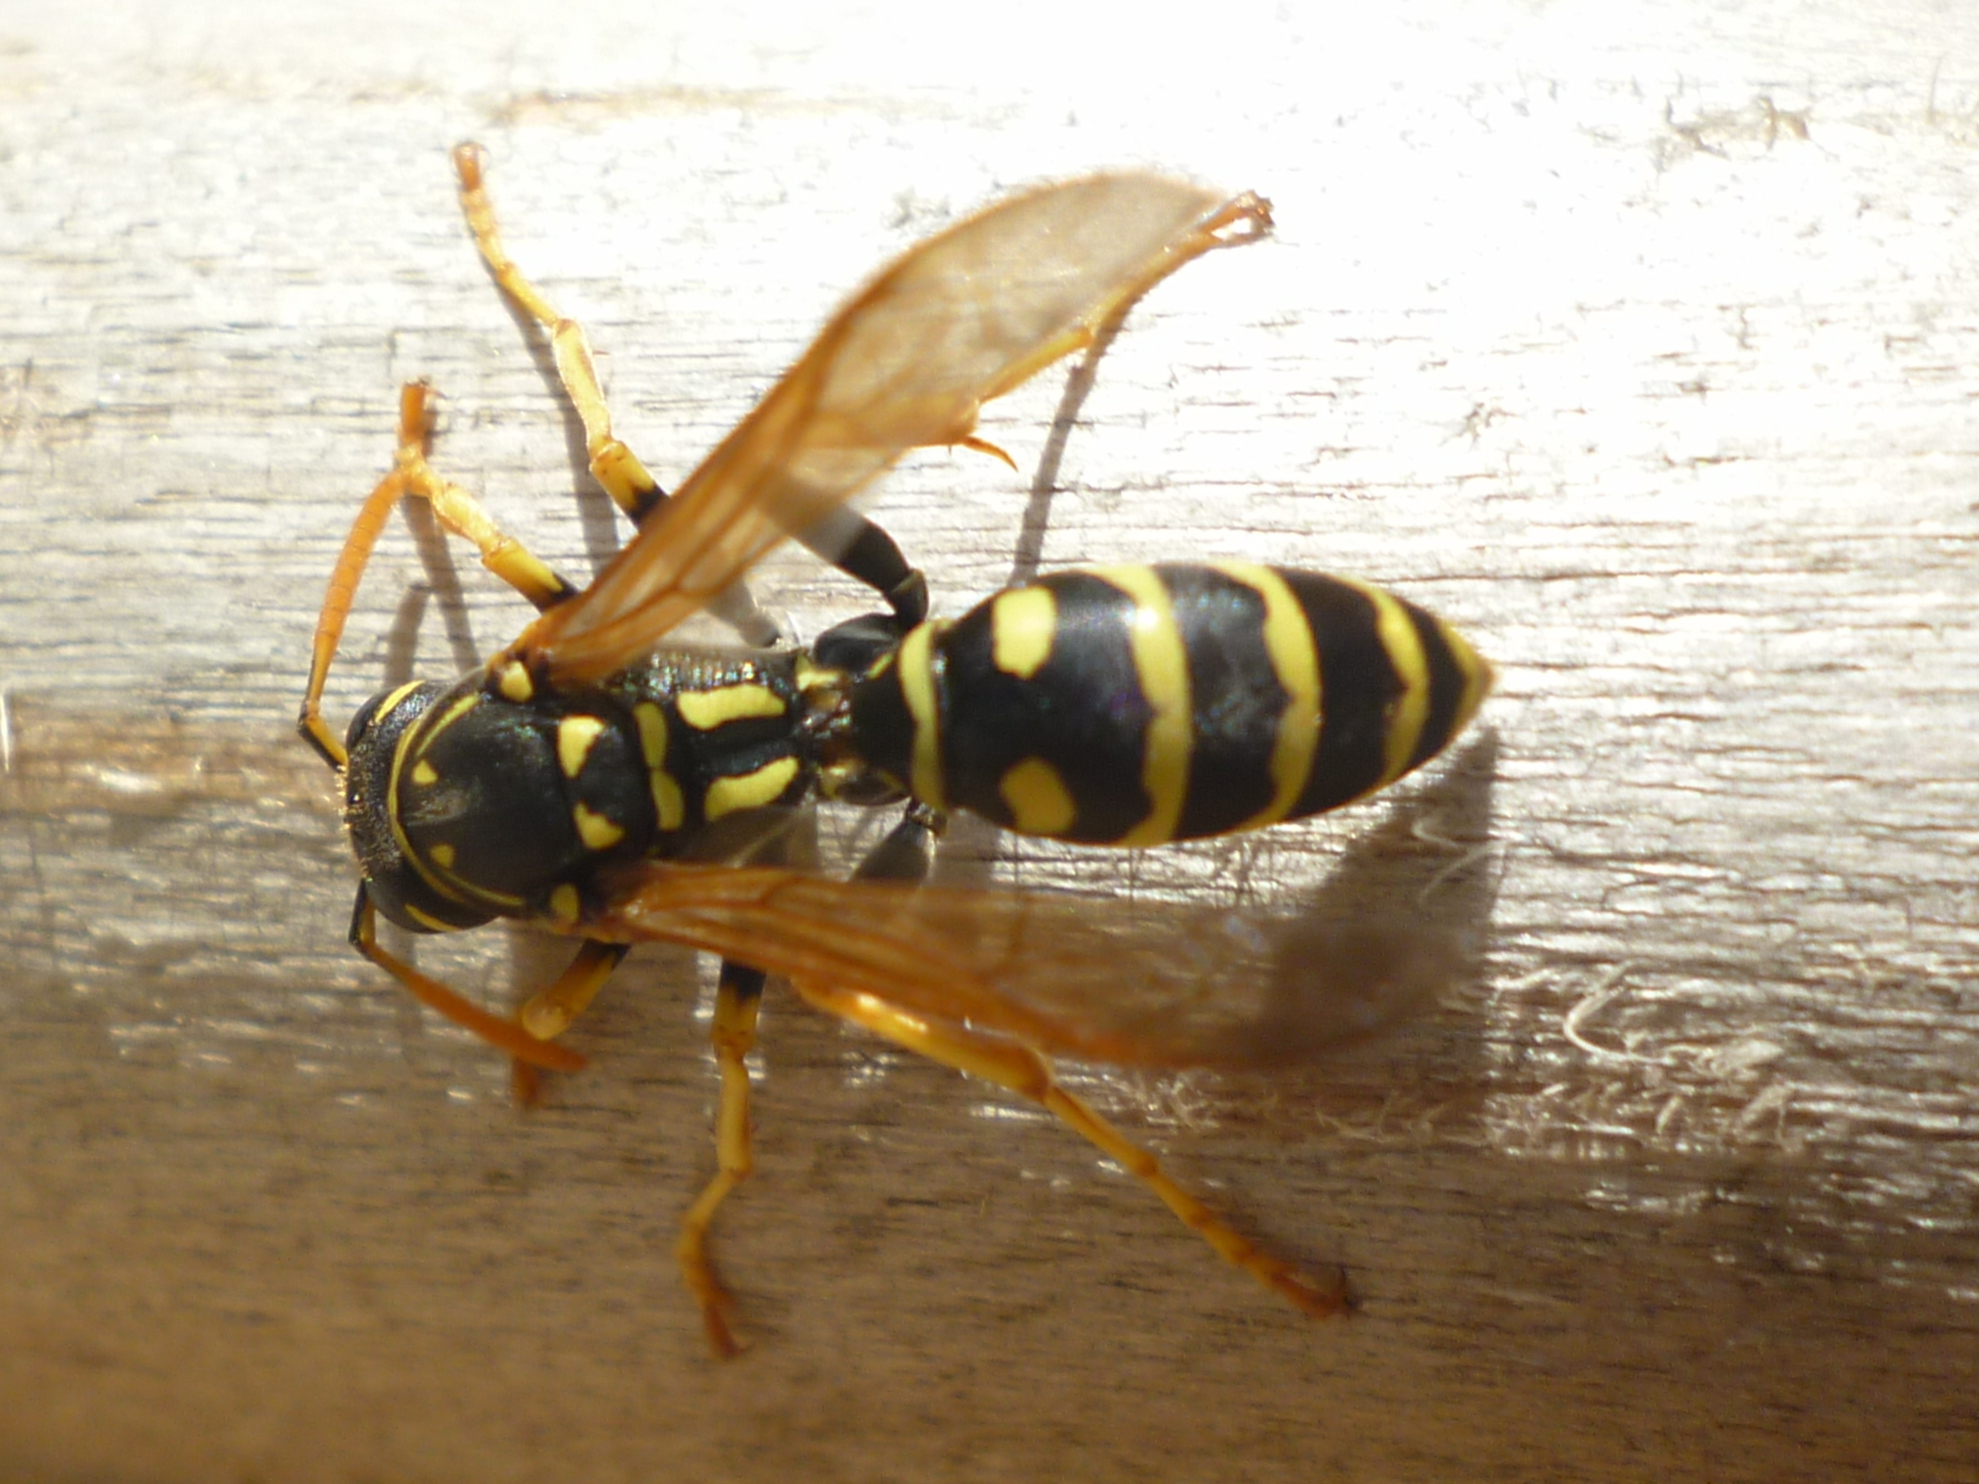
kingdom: Animalia
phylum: Arthropoda
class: Insecta
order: Hymenoptera
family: Eumenidae
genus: Polistes
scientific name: Polistes dominula
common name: Paper wasp
